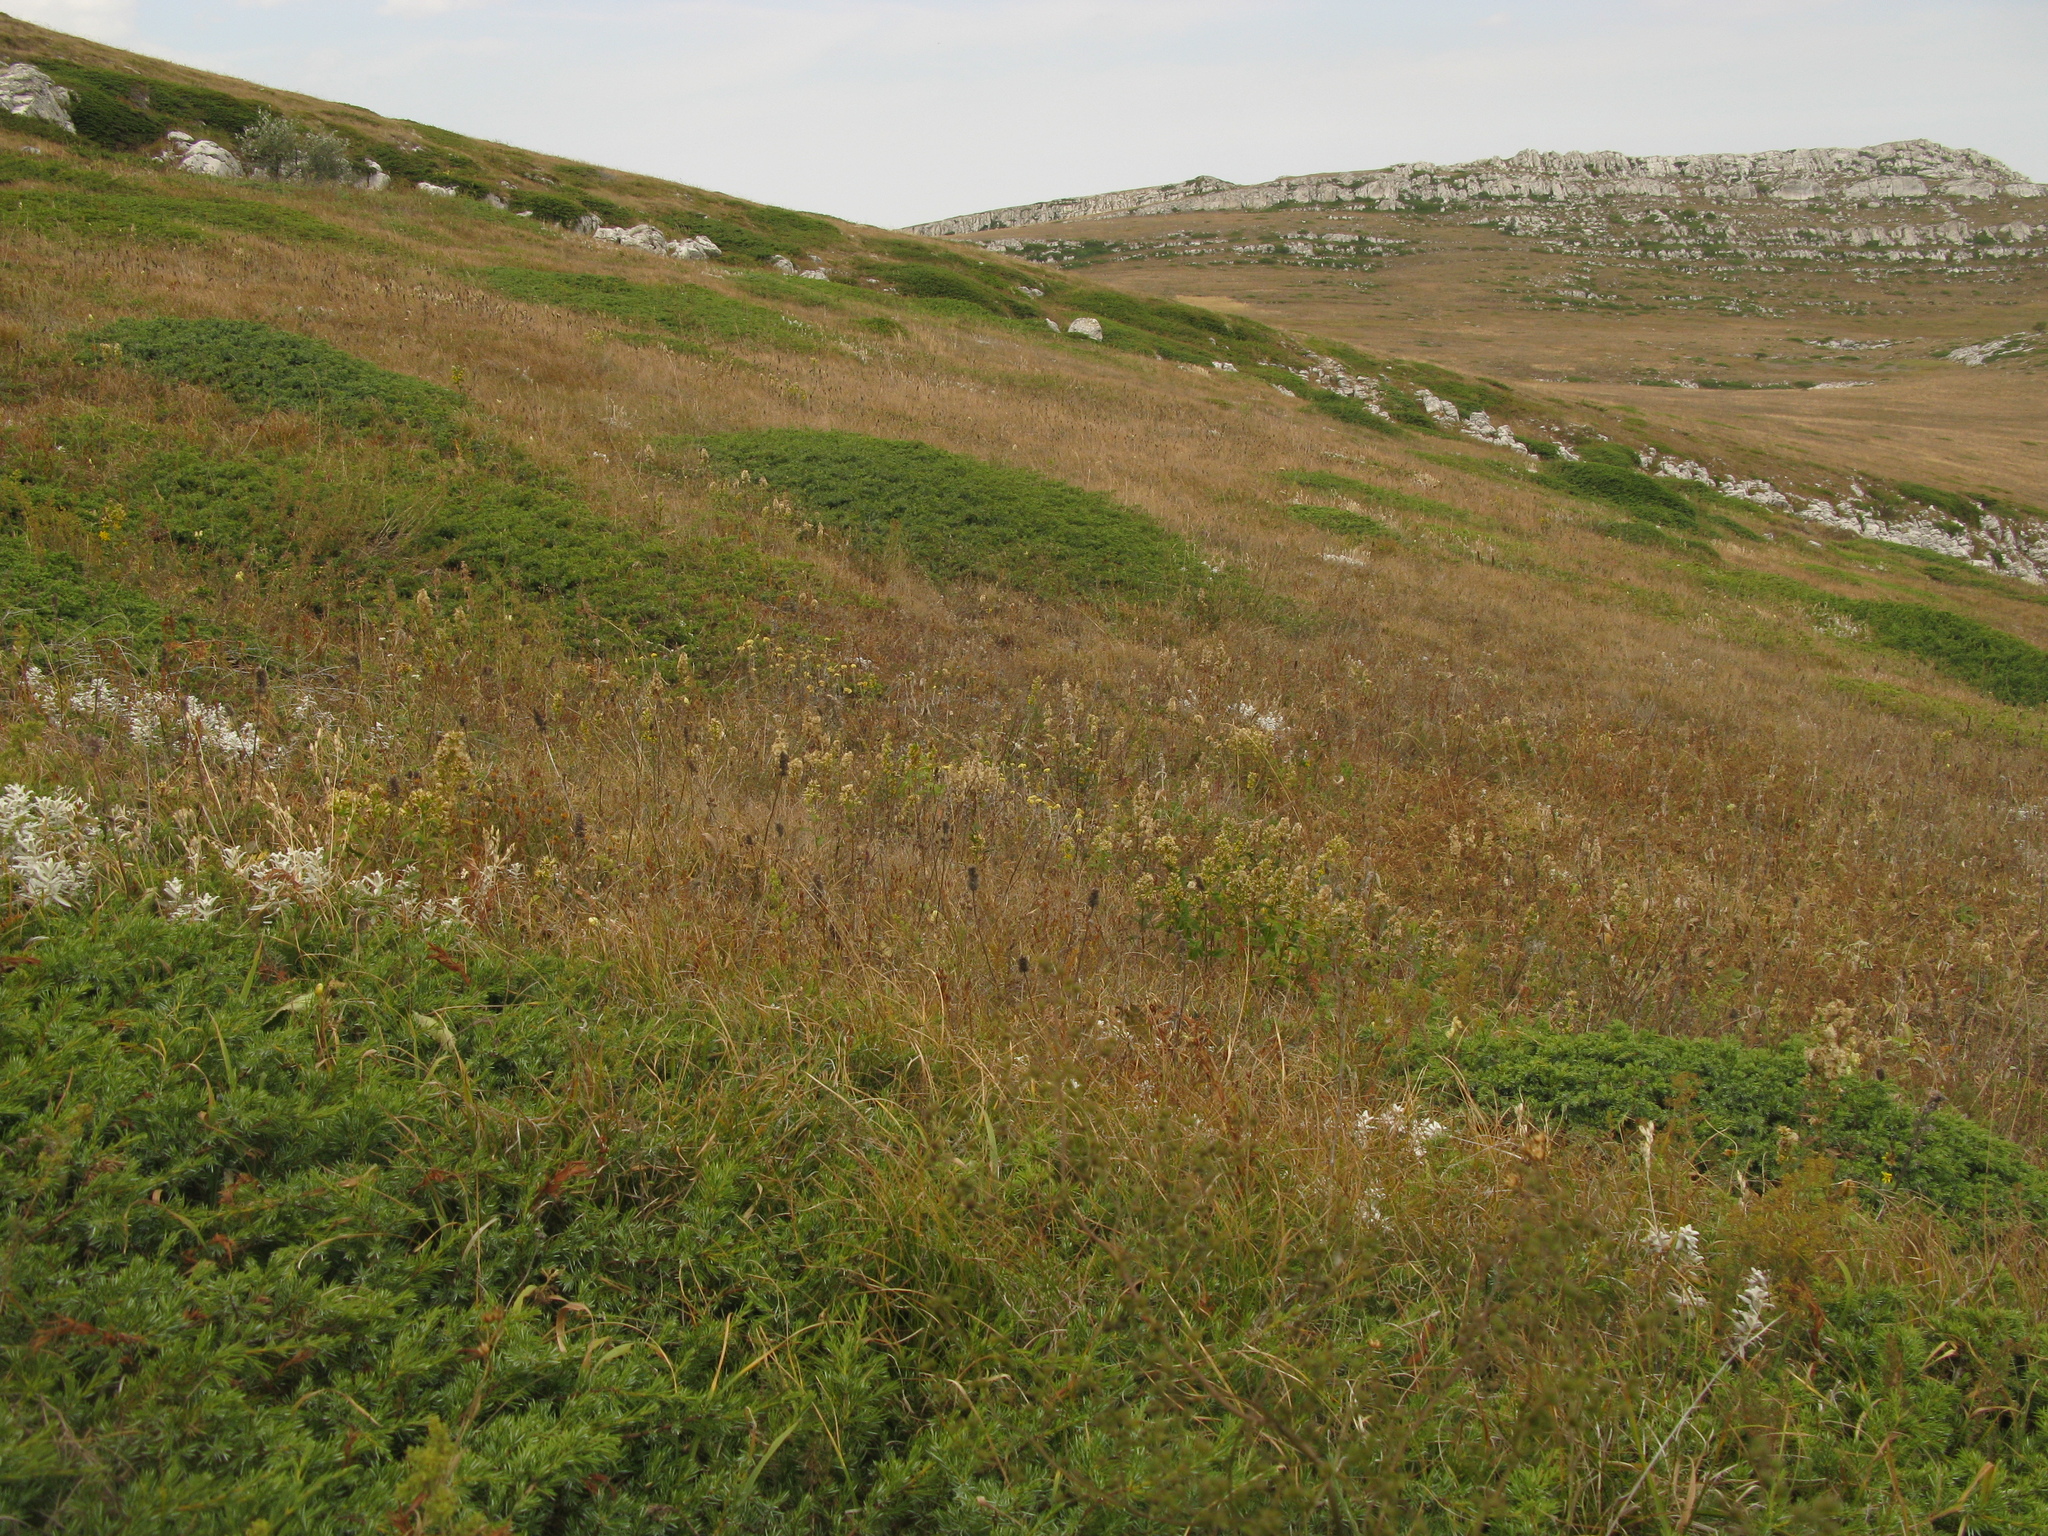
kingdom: Plantae
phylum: Tracheophyta
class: Pinopsida
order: Pinales
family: Cupressaceae
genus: Juniperus
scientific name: Juniperus communis
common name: Common juniper
